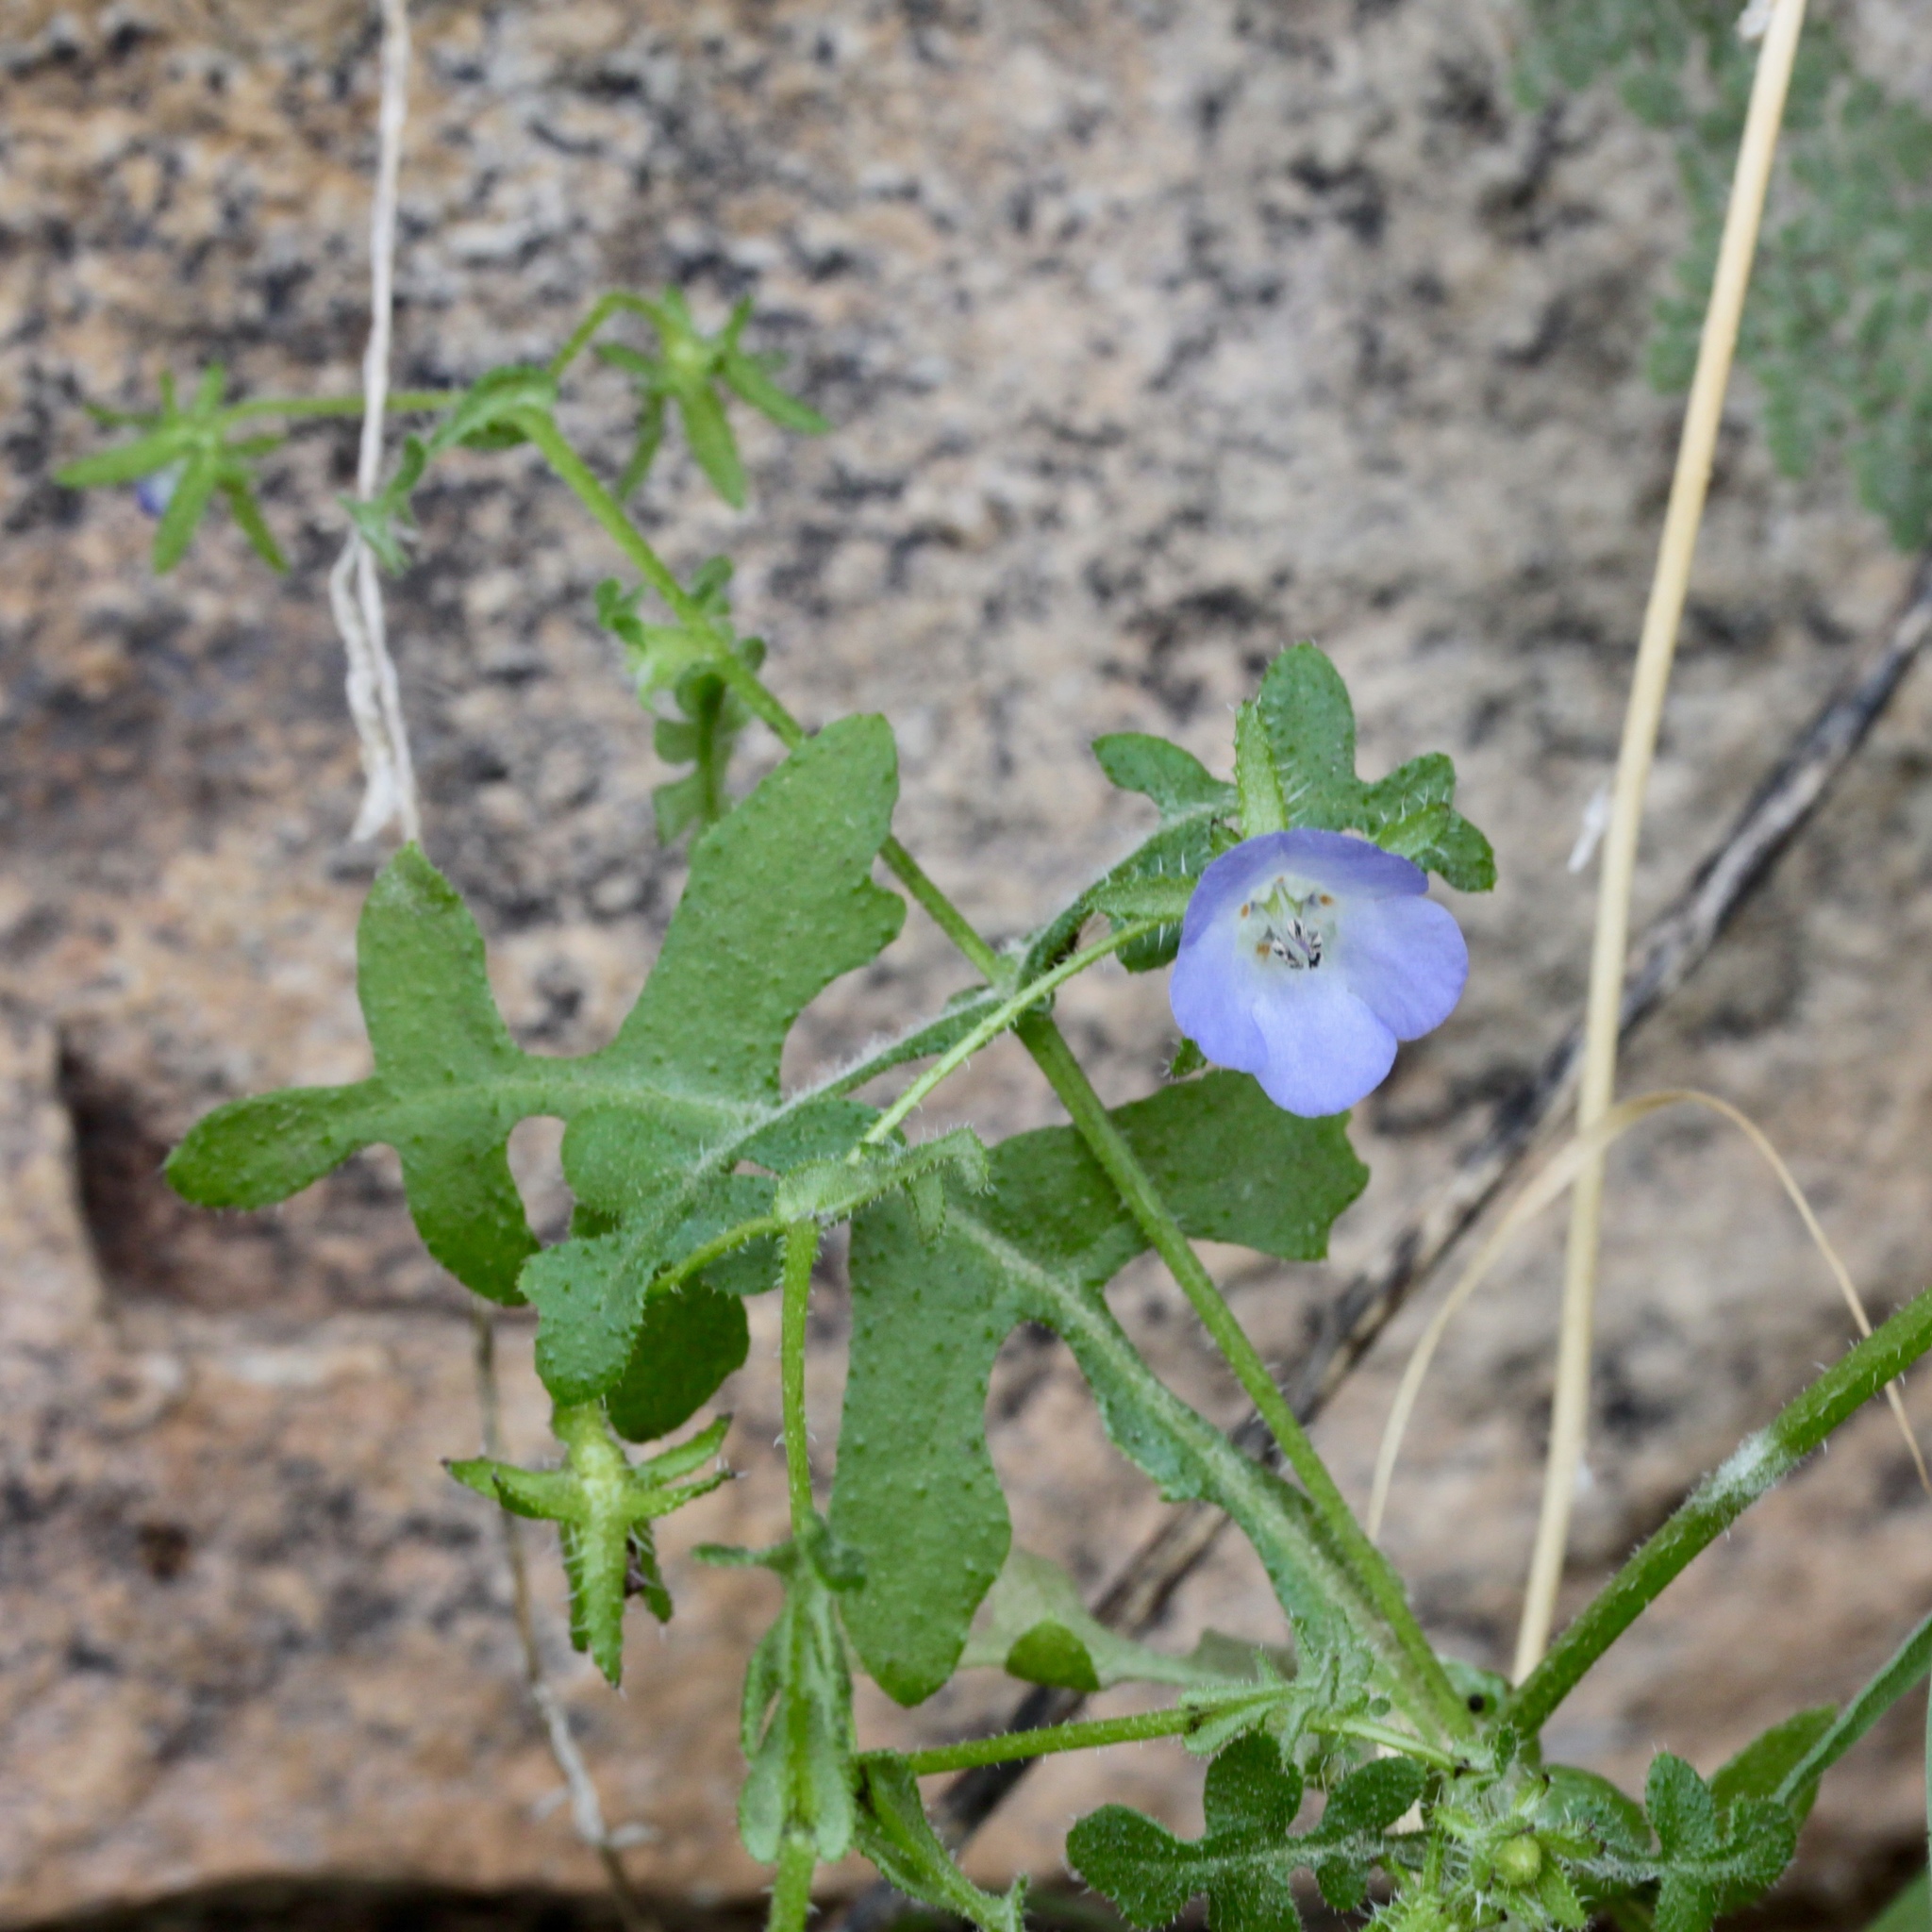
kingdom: Plantae
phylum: Tracheophyta
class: Magnoliopsida
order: Boraginales
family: Hydrophyllaceae
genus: Pholistoma
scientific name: Pholistoma auritum
